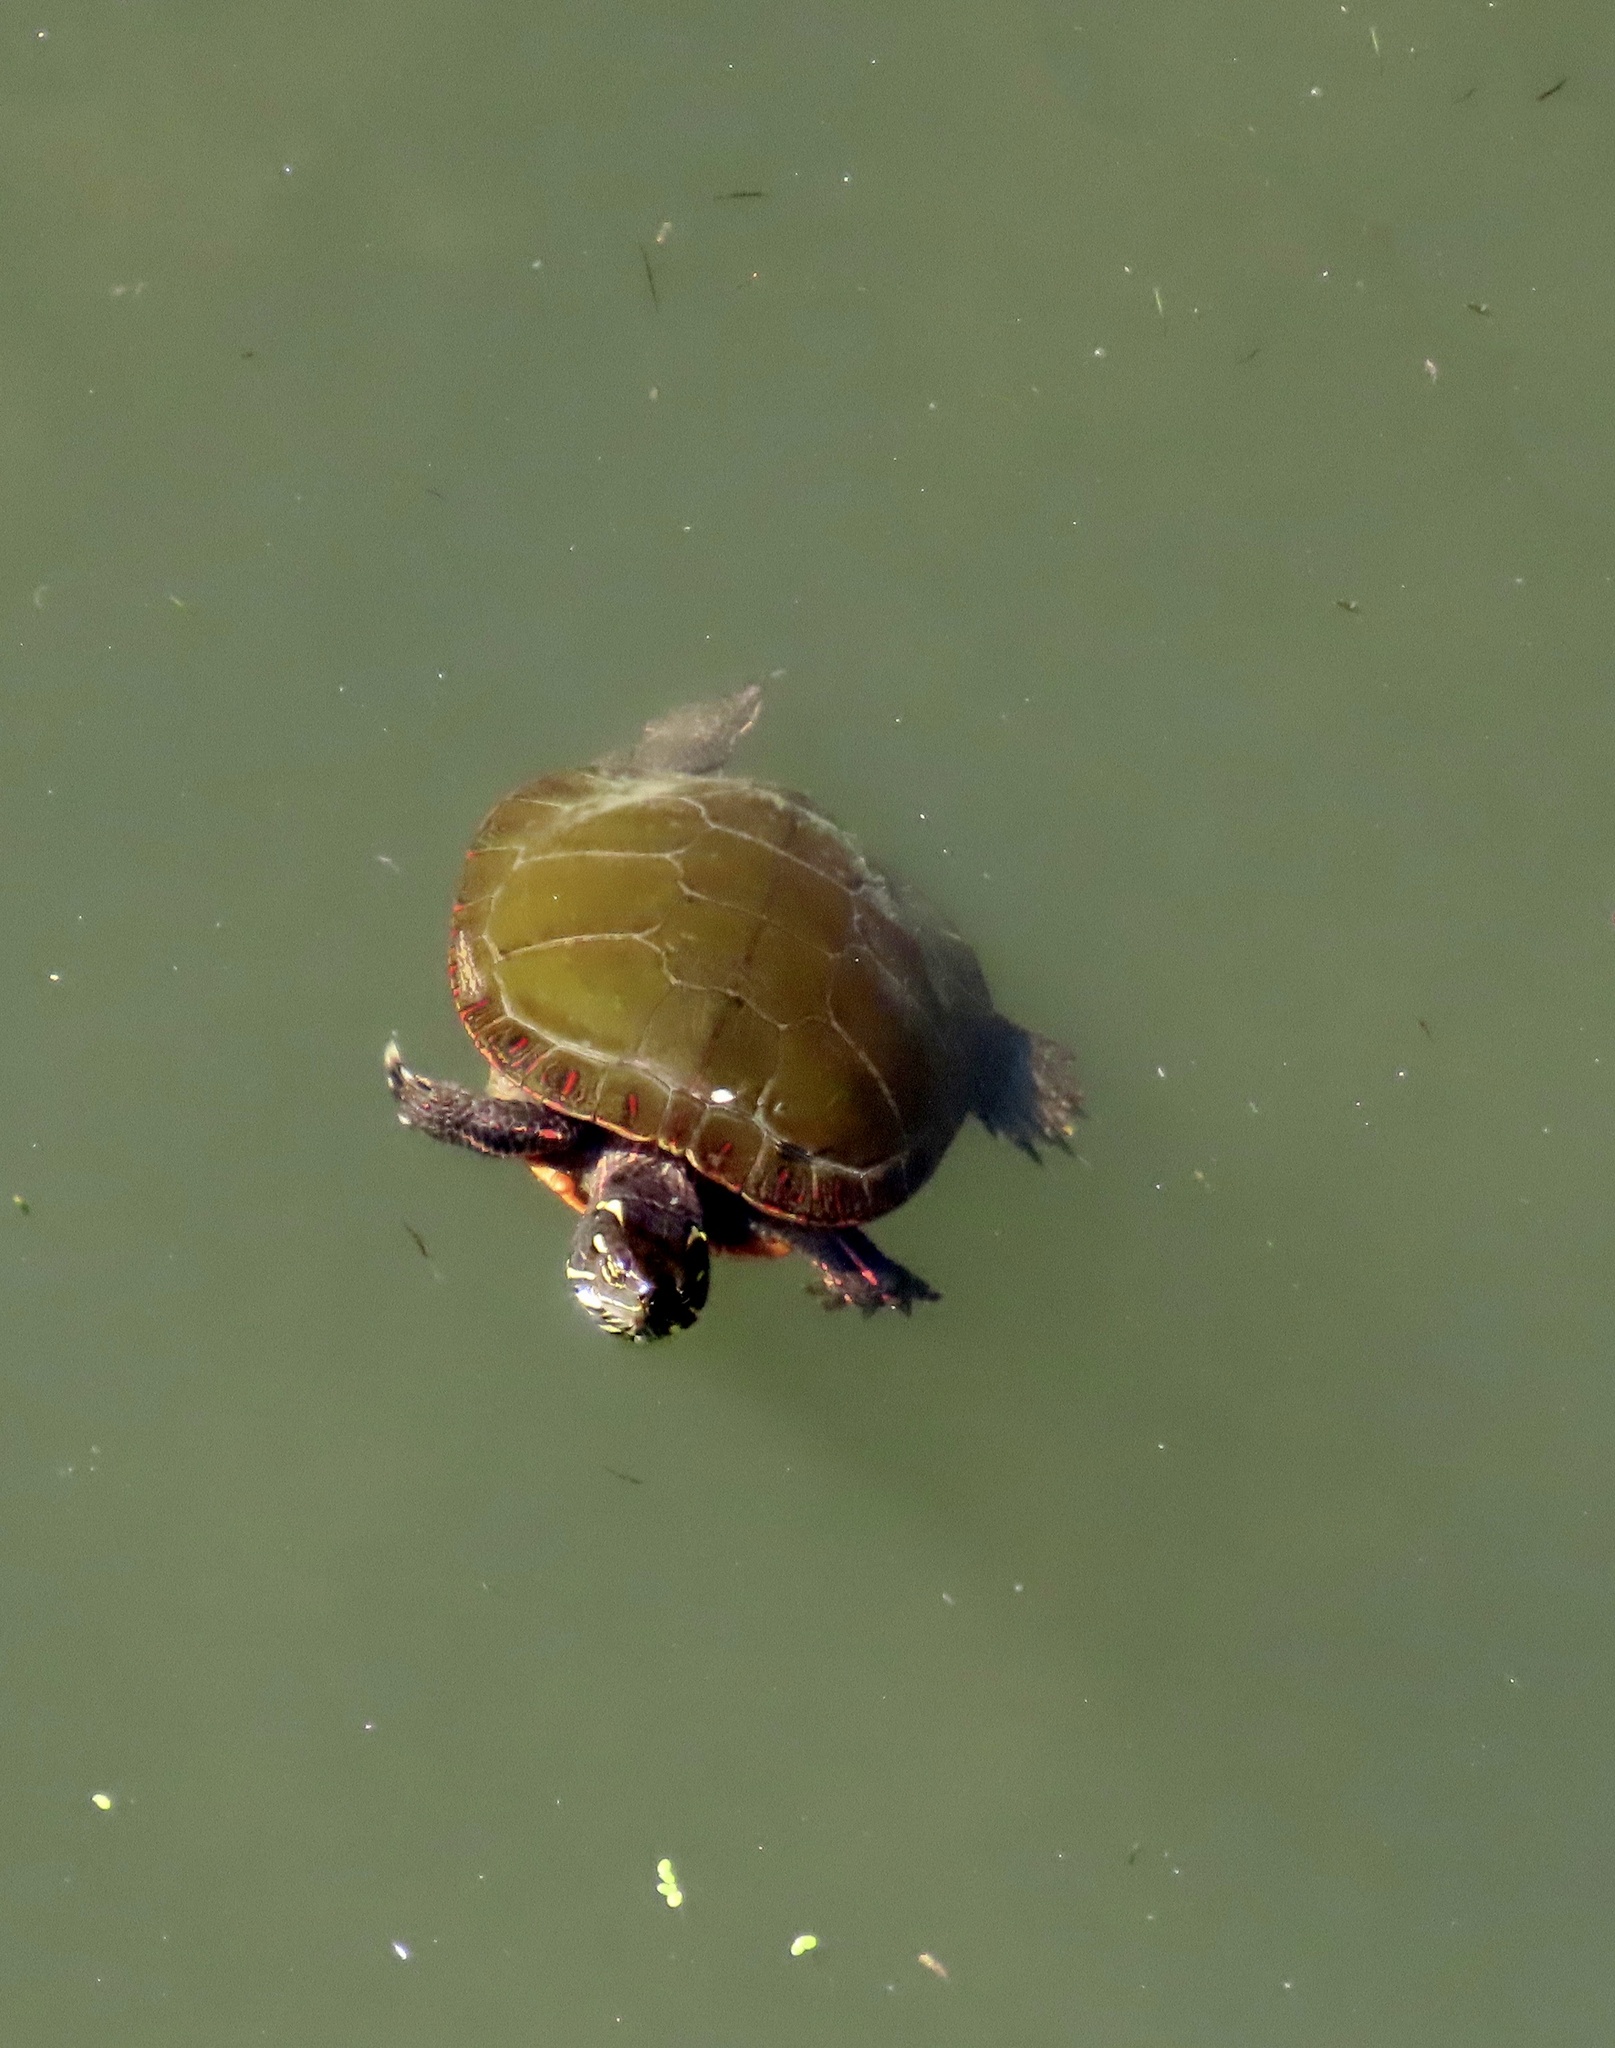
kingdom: Animalia
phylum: Chordata
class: Testudines
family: Emydidae
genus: Chrysemys
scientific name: Chrysemys picta
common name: Painted turtle
